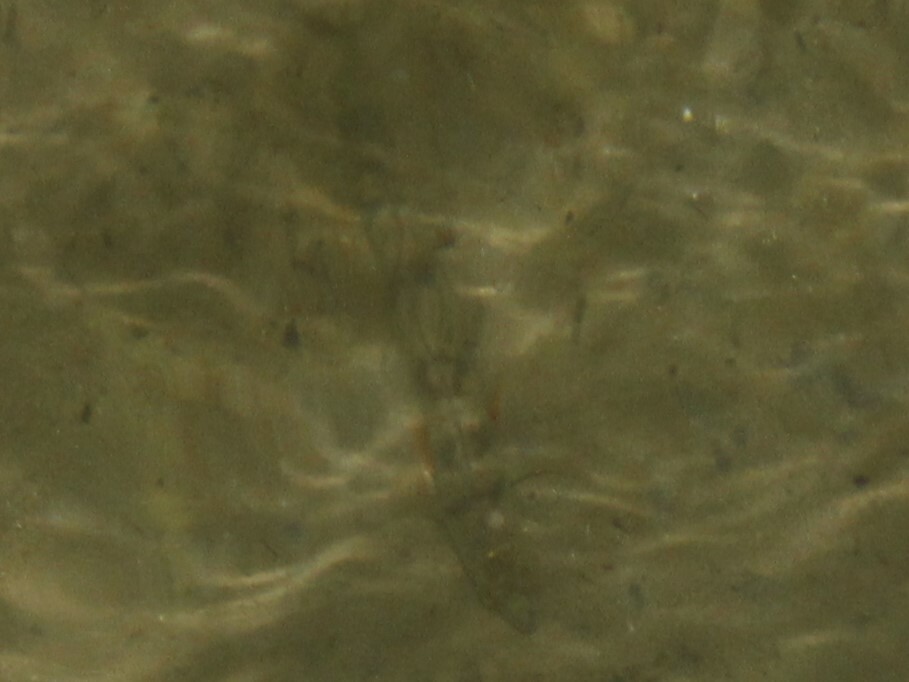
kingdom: Animalia
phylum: Chordata
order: Perciformes
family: Percidae
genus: Perca
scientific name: Perca flavescens
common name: Yellow perch
